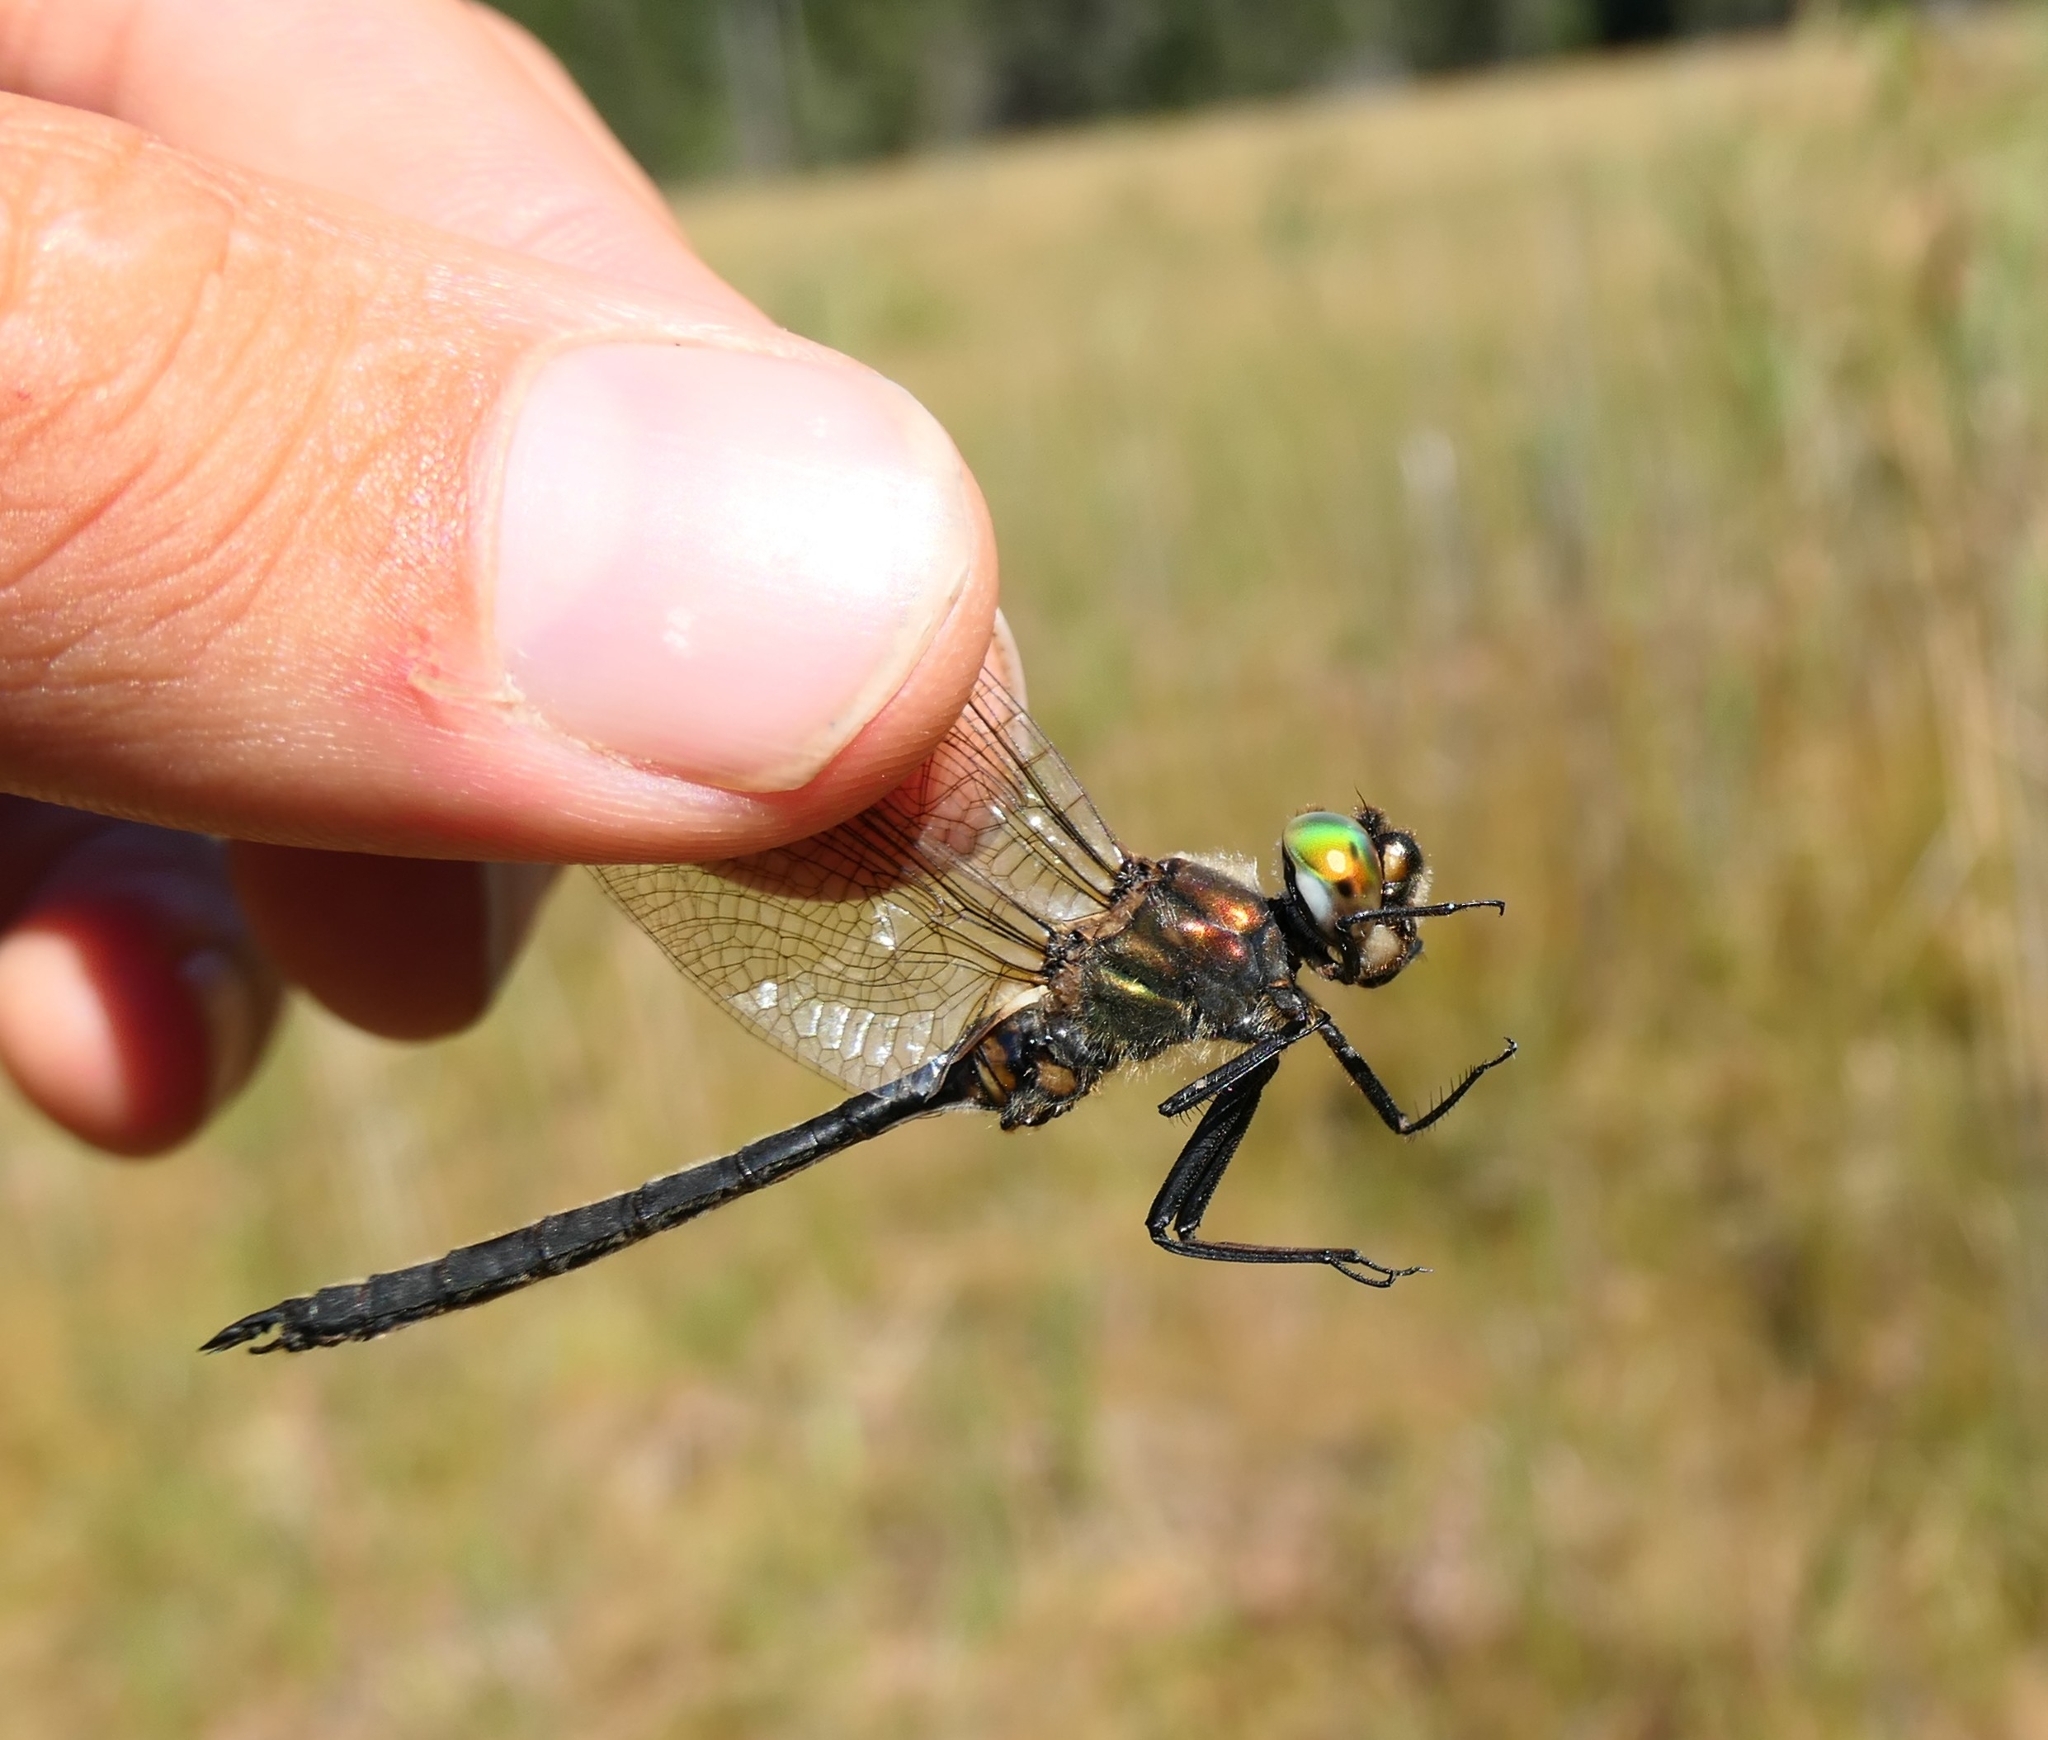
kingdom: Animalia
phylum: Arthropoda
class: Insecta
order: Odonata
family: Corduliidae
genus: Somatochlora
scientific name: Somatochlora arctica
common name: Northern emerald
